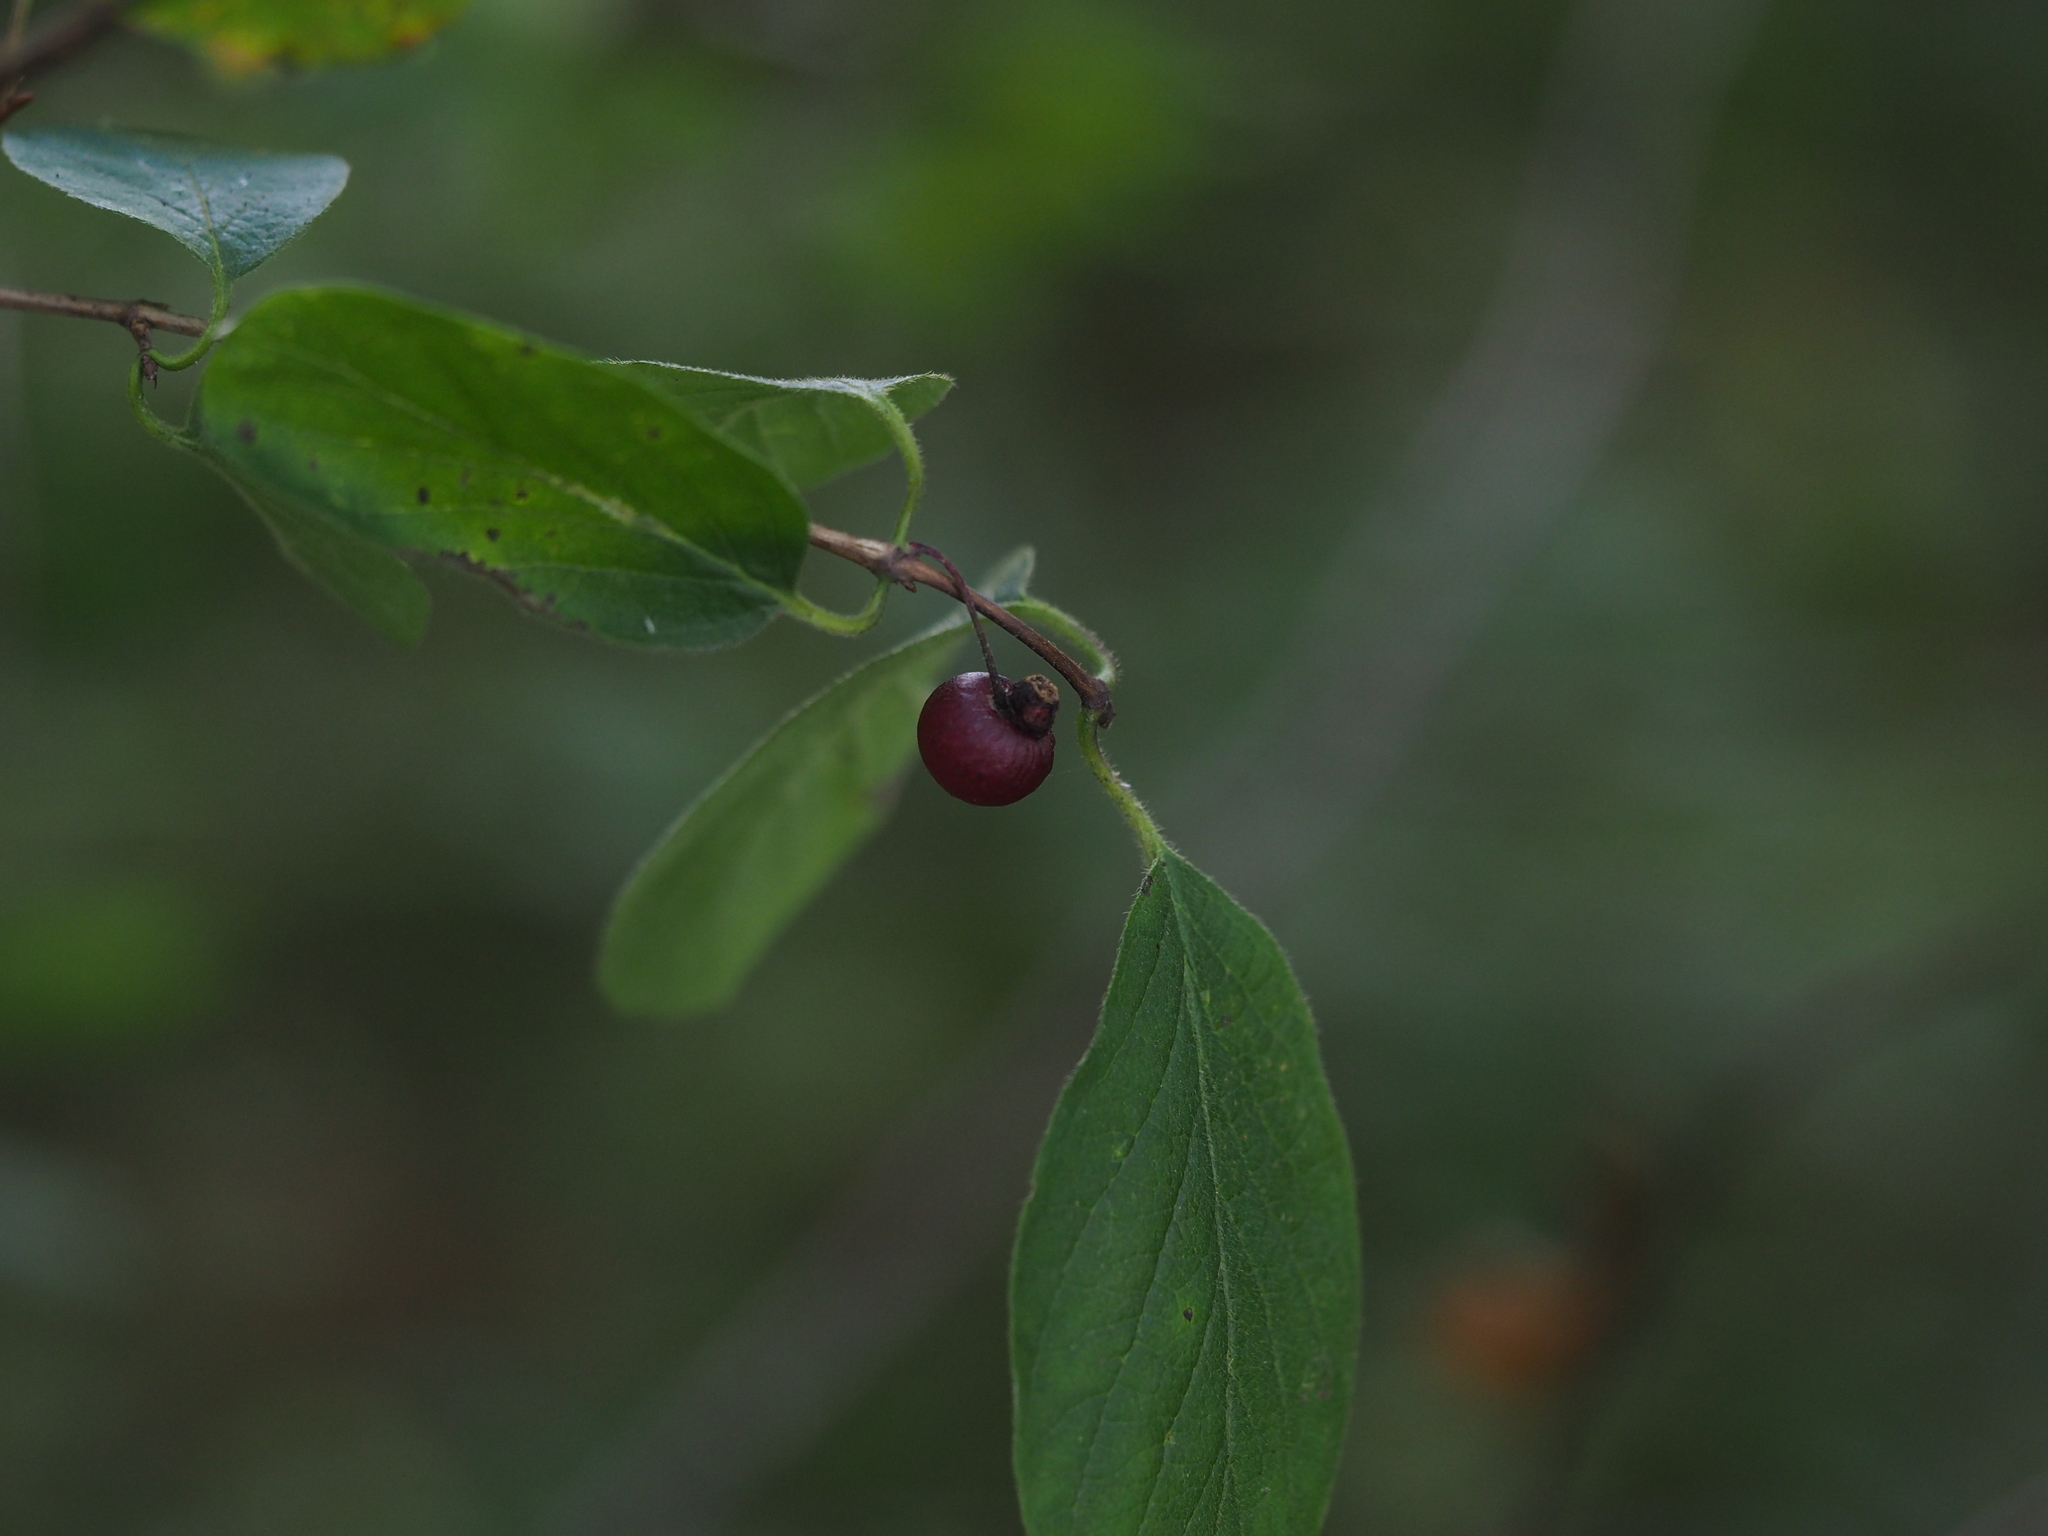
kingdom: Plantae
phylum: Tracheophyta
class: Magnoliopsida
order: Dipsacales
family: Caprifoliaceae
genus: Lonicera
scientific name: Lonicera xylosteum
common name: Fly honeysuckle
